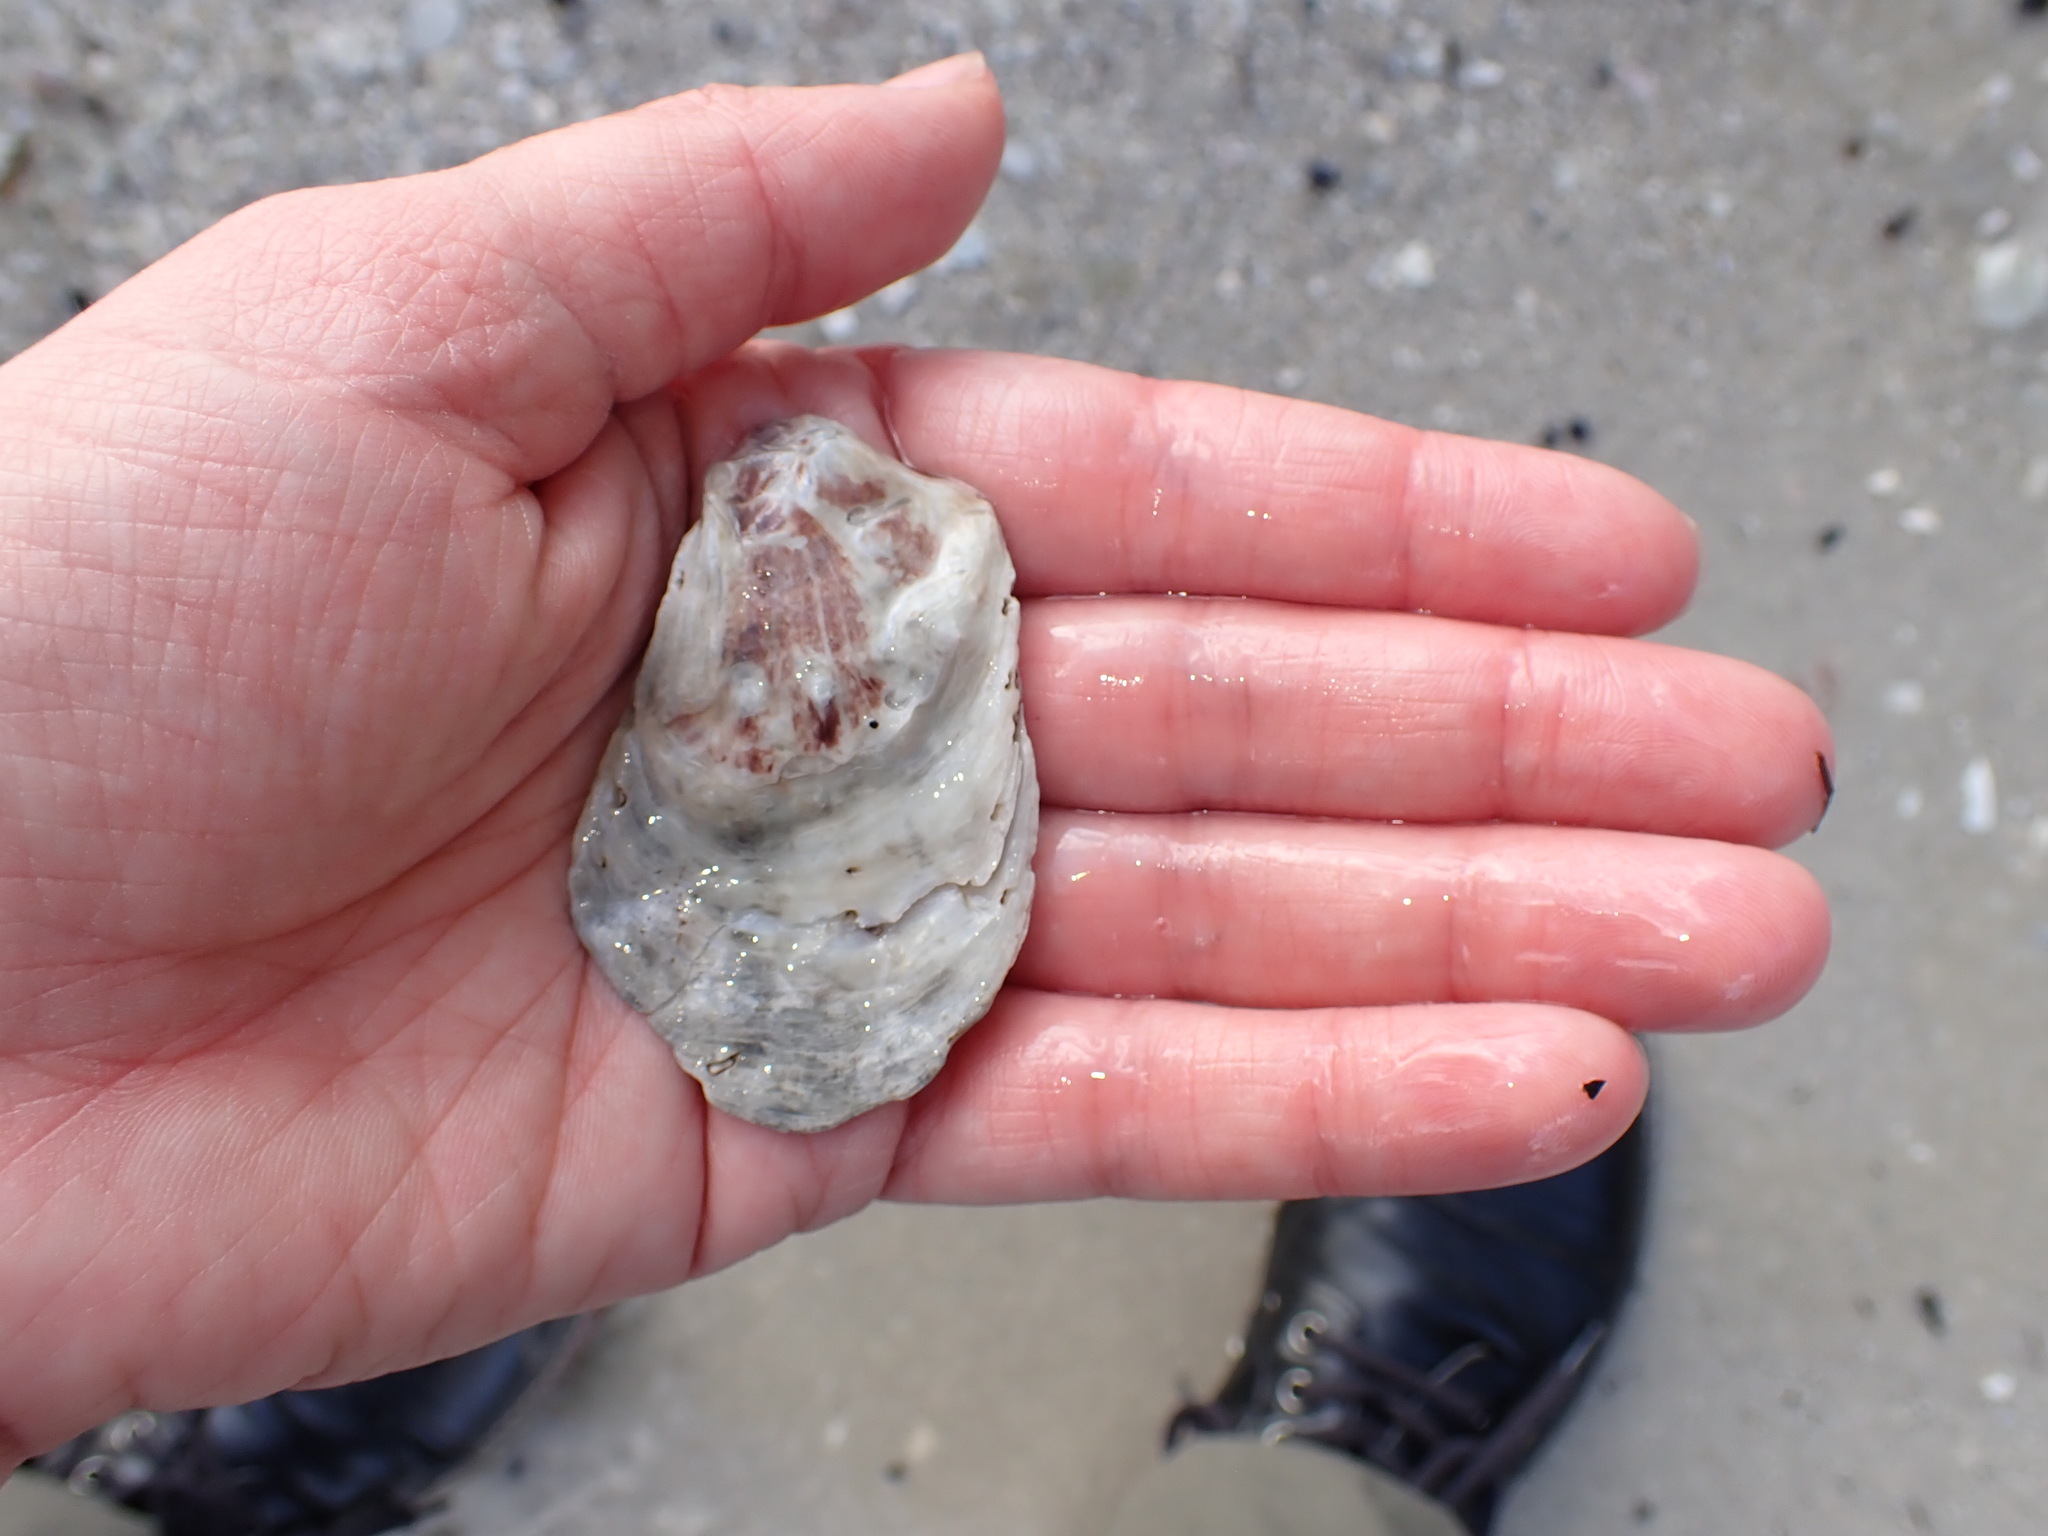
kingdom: Animalia
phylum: Mollusca
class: Bivalvia
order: Ostreida
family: Ostreidae
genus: Crassostrea
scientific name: Crassostrea virginica
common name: American oyster
